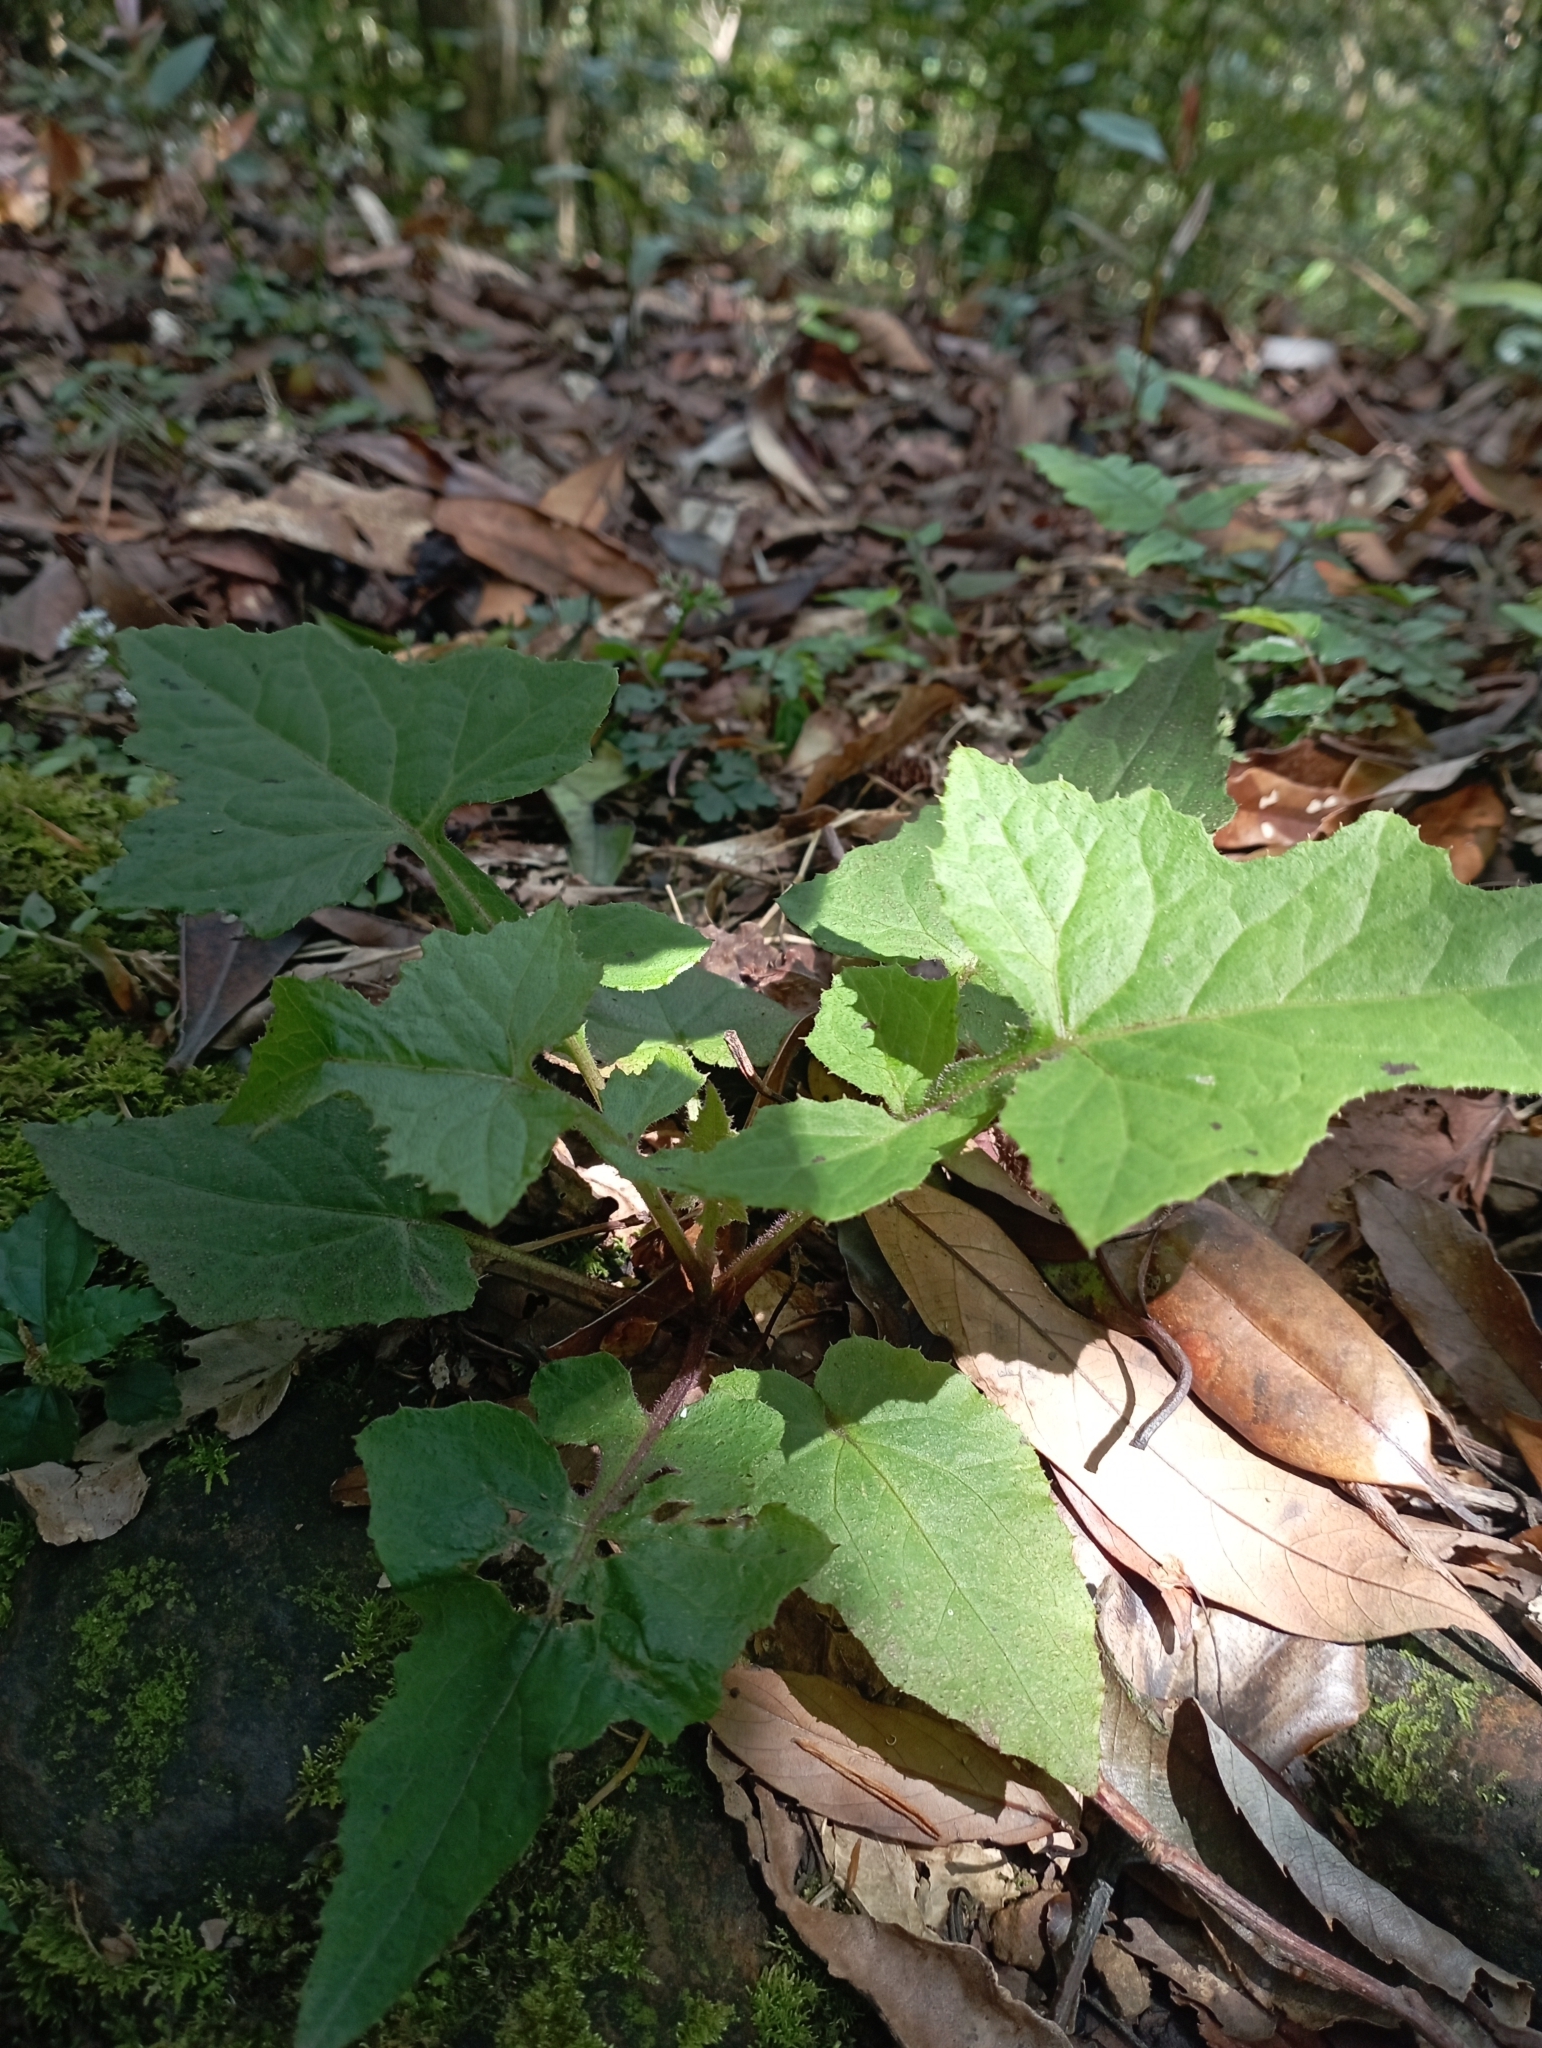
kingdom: Plantae
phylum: Tracheophyta
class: Magnoliopsida
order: Asterales
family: Asteraceae
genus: Paraprenanthes
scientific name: Paraprenanthes sororia
